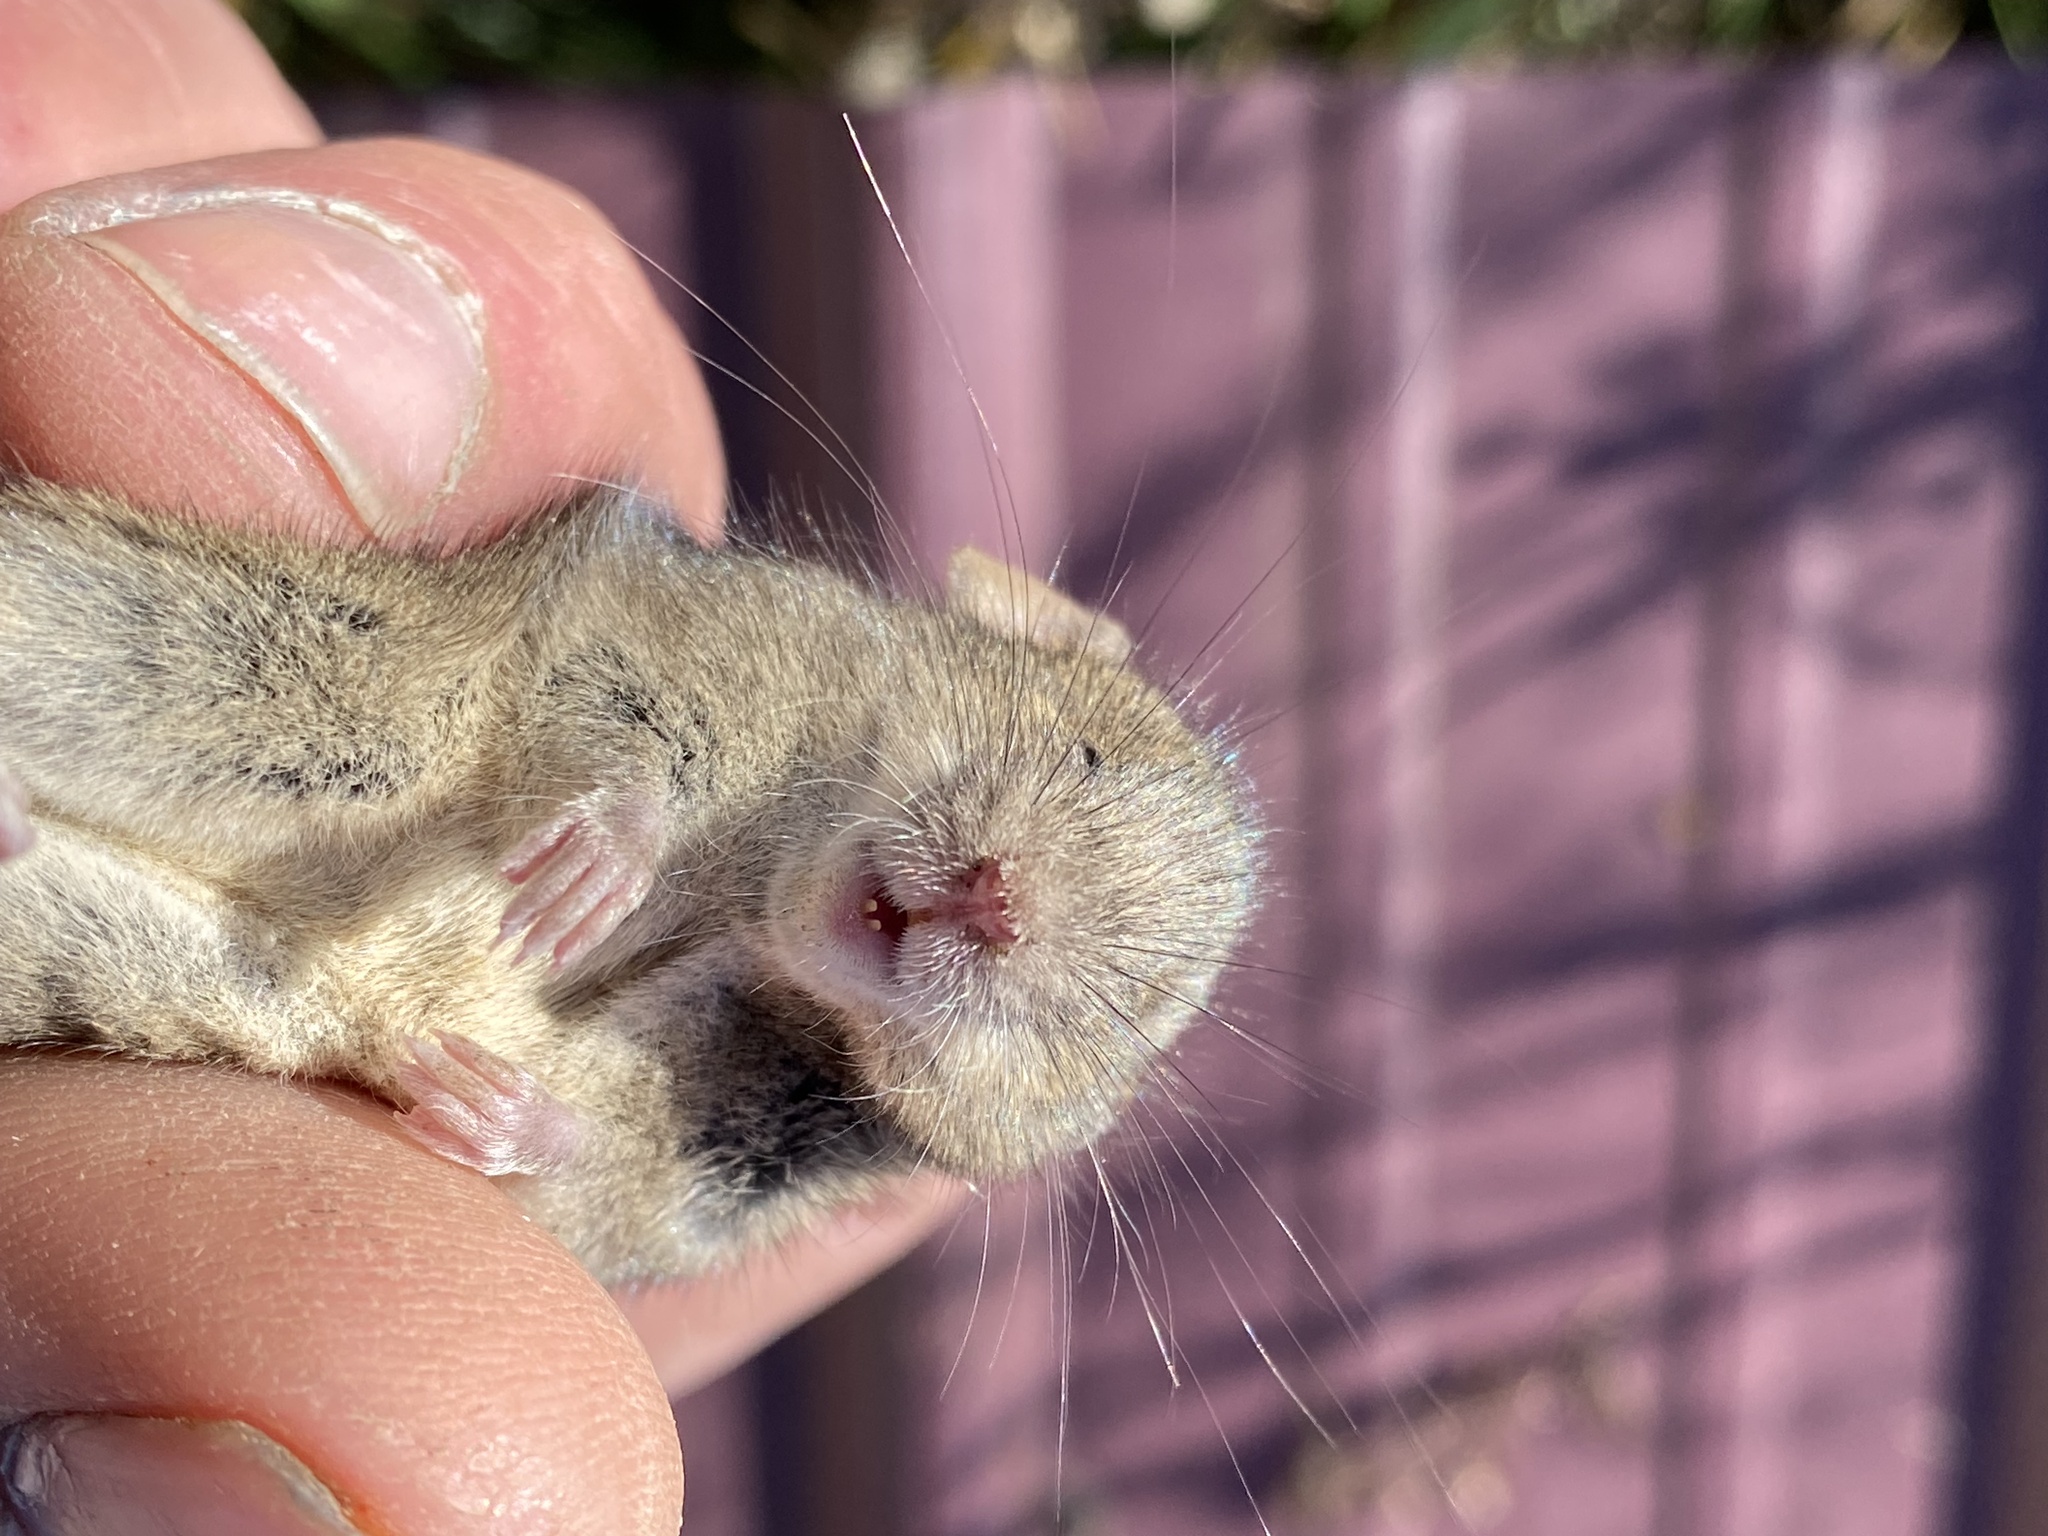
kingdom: Animalia
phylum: Chordata
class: Mammalia
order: Rodentia
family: Muridae
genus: Mus
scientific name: Mus musculus
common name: House mouse
